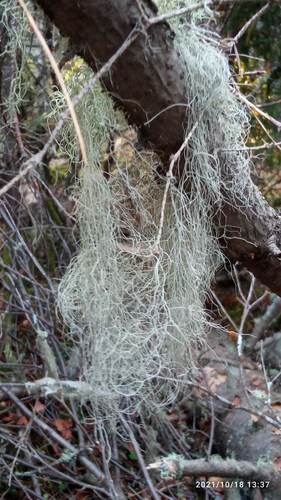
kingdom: Fungi
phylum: Ascomycota
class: Lecanoromycetes
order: Lecanorales
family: Parmeliaceae
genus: Bryoria
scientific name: Bryoria fuscescens
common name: Pale-footed horsehair lichen
